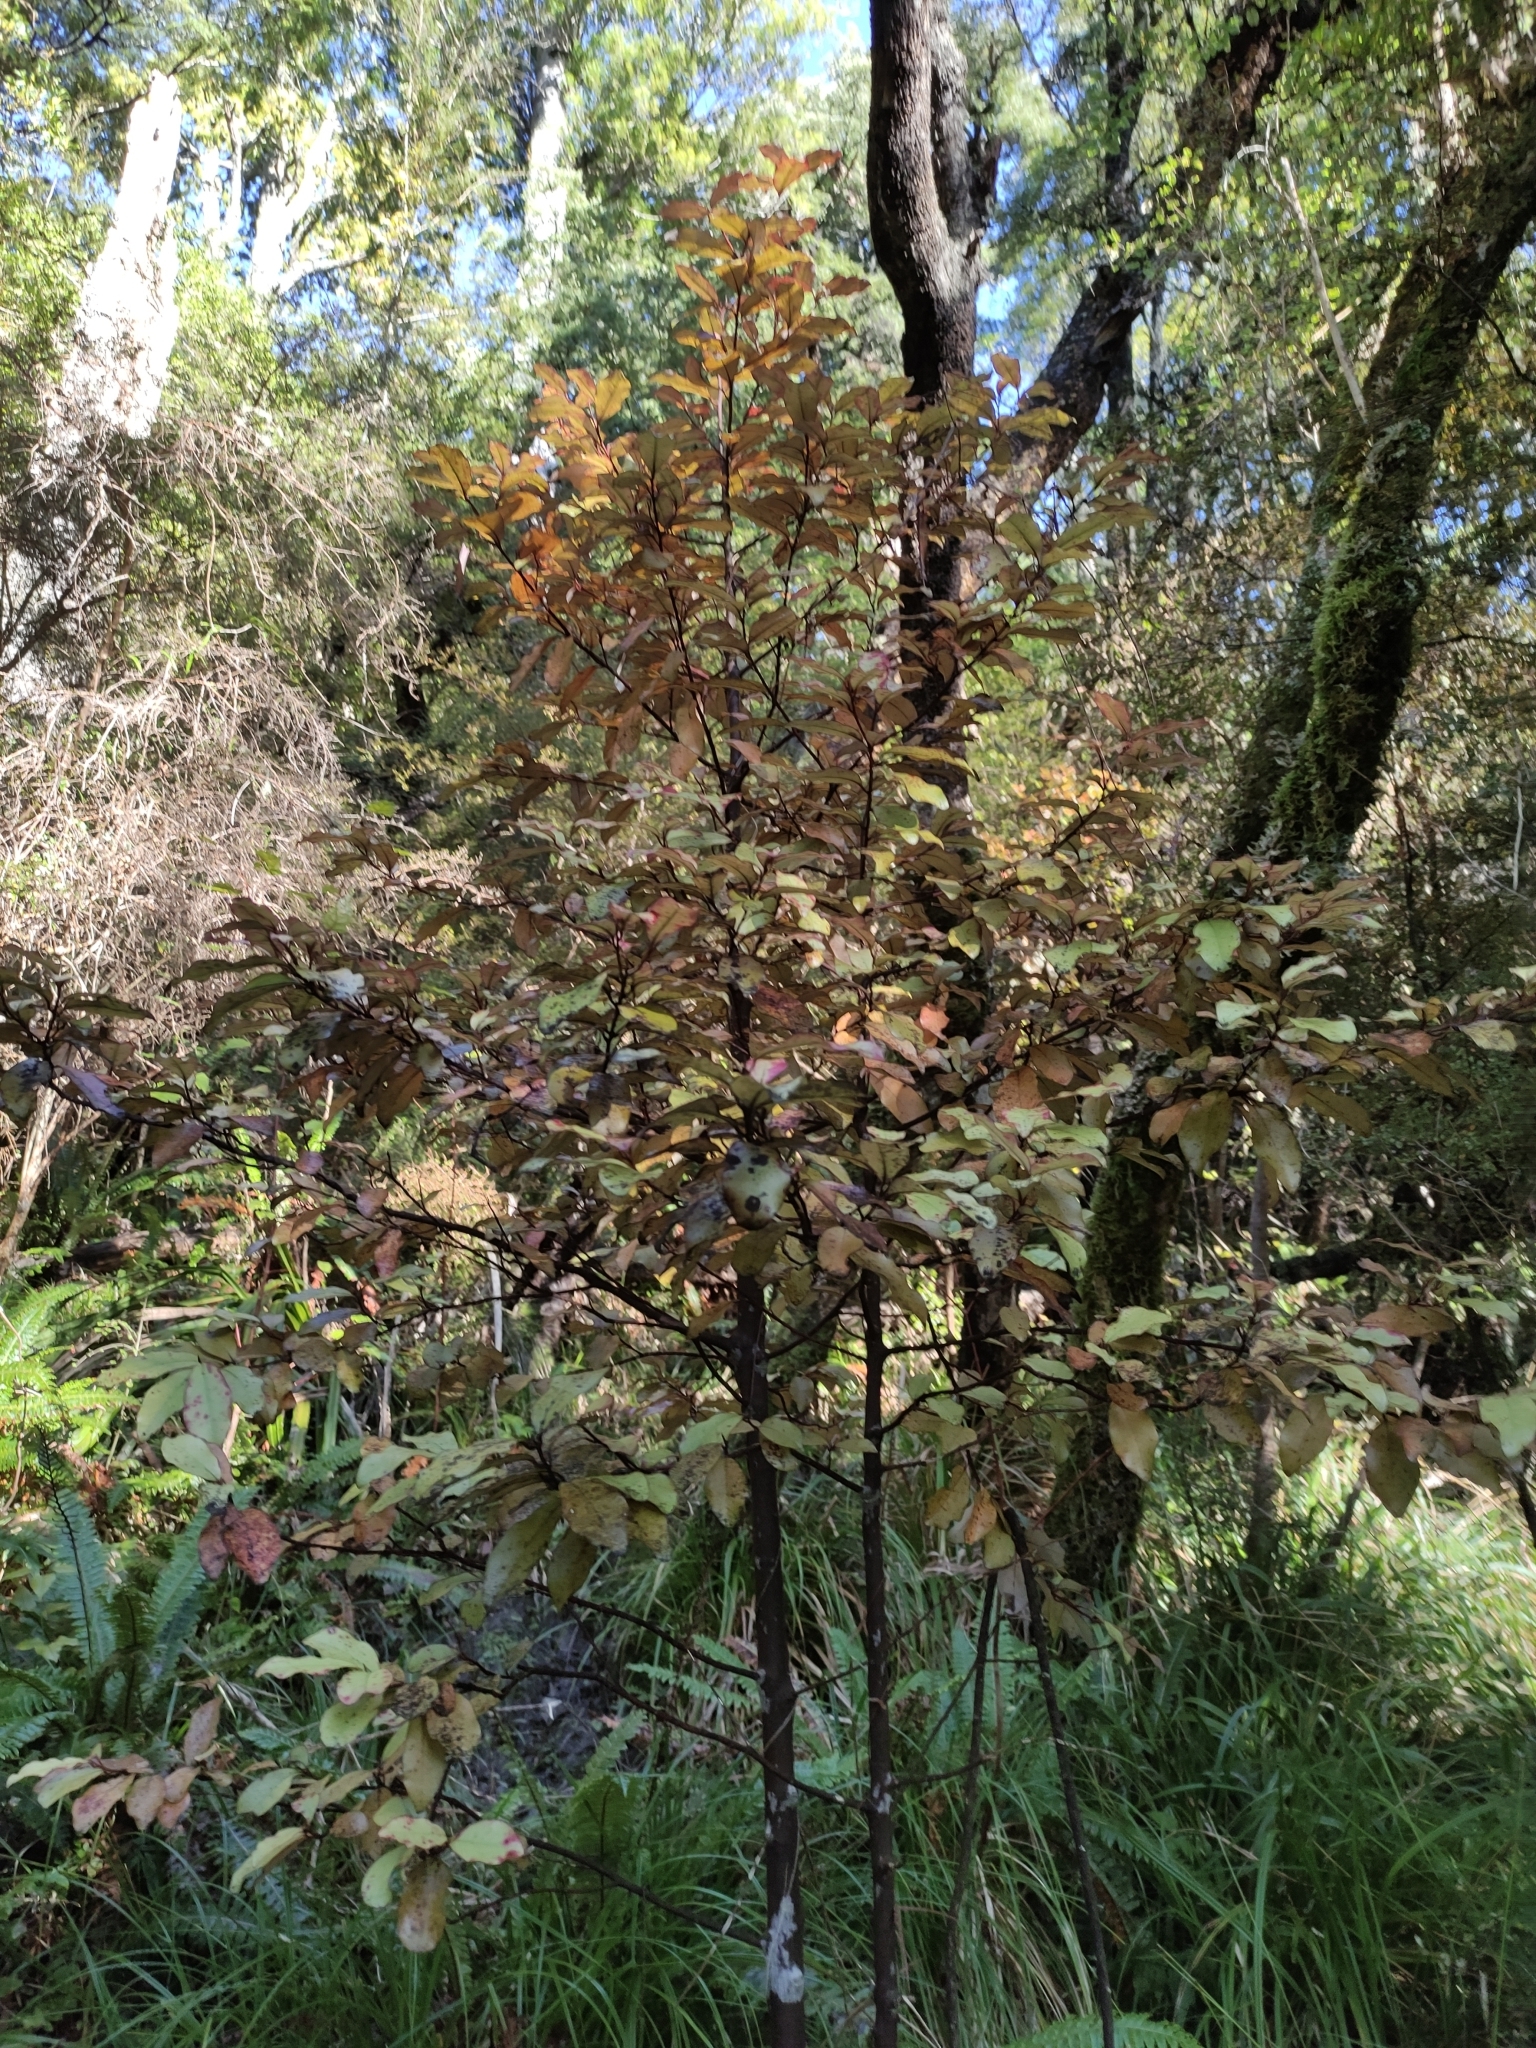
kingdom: Plantae
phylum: Tracheophyta
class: Magnoliopsida
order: Canellales
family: Winteraceae
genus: Pseudowintera
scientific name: Pseudowintera colorata
